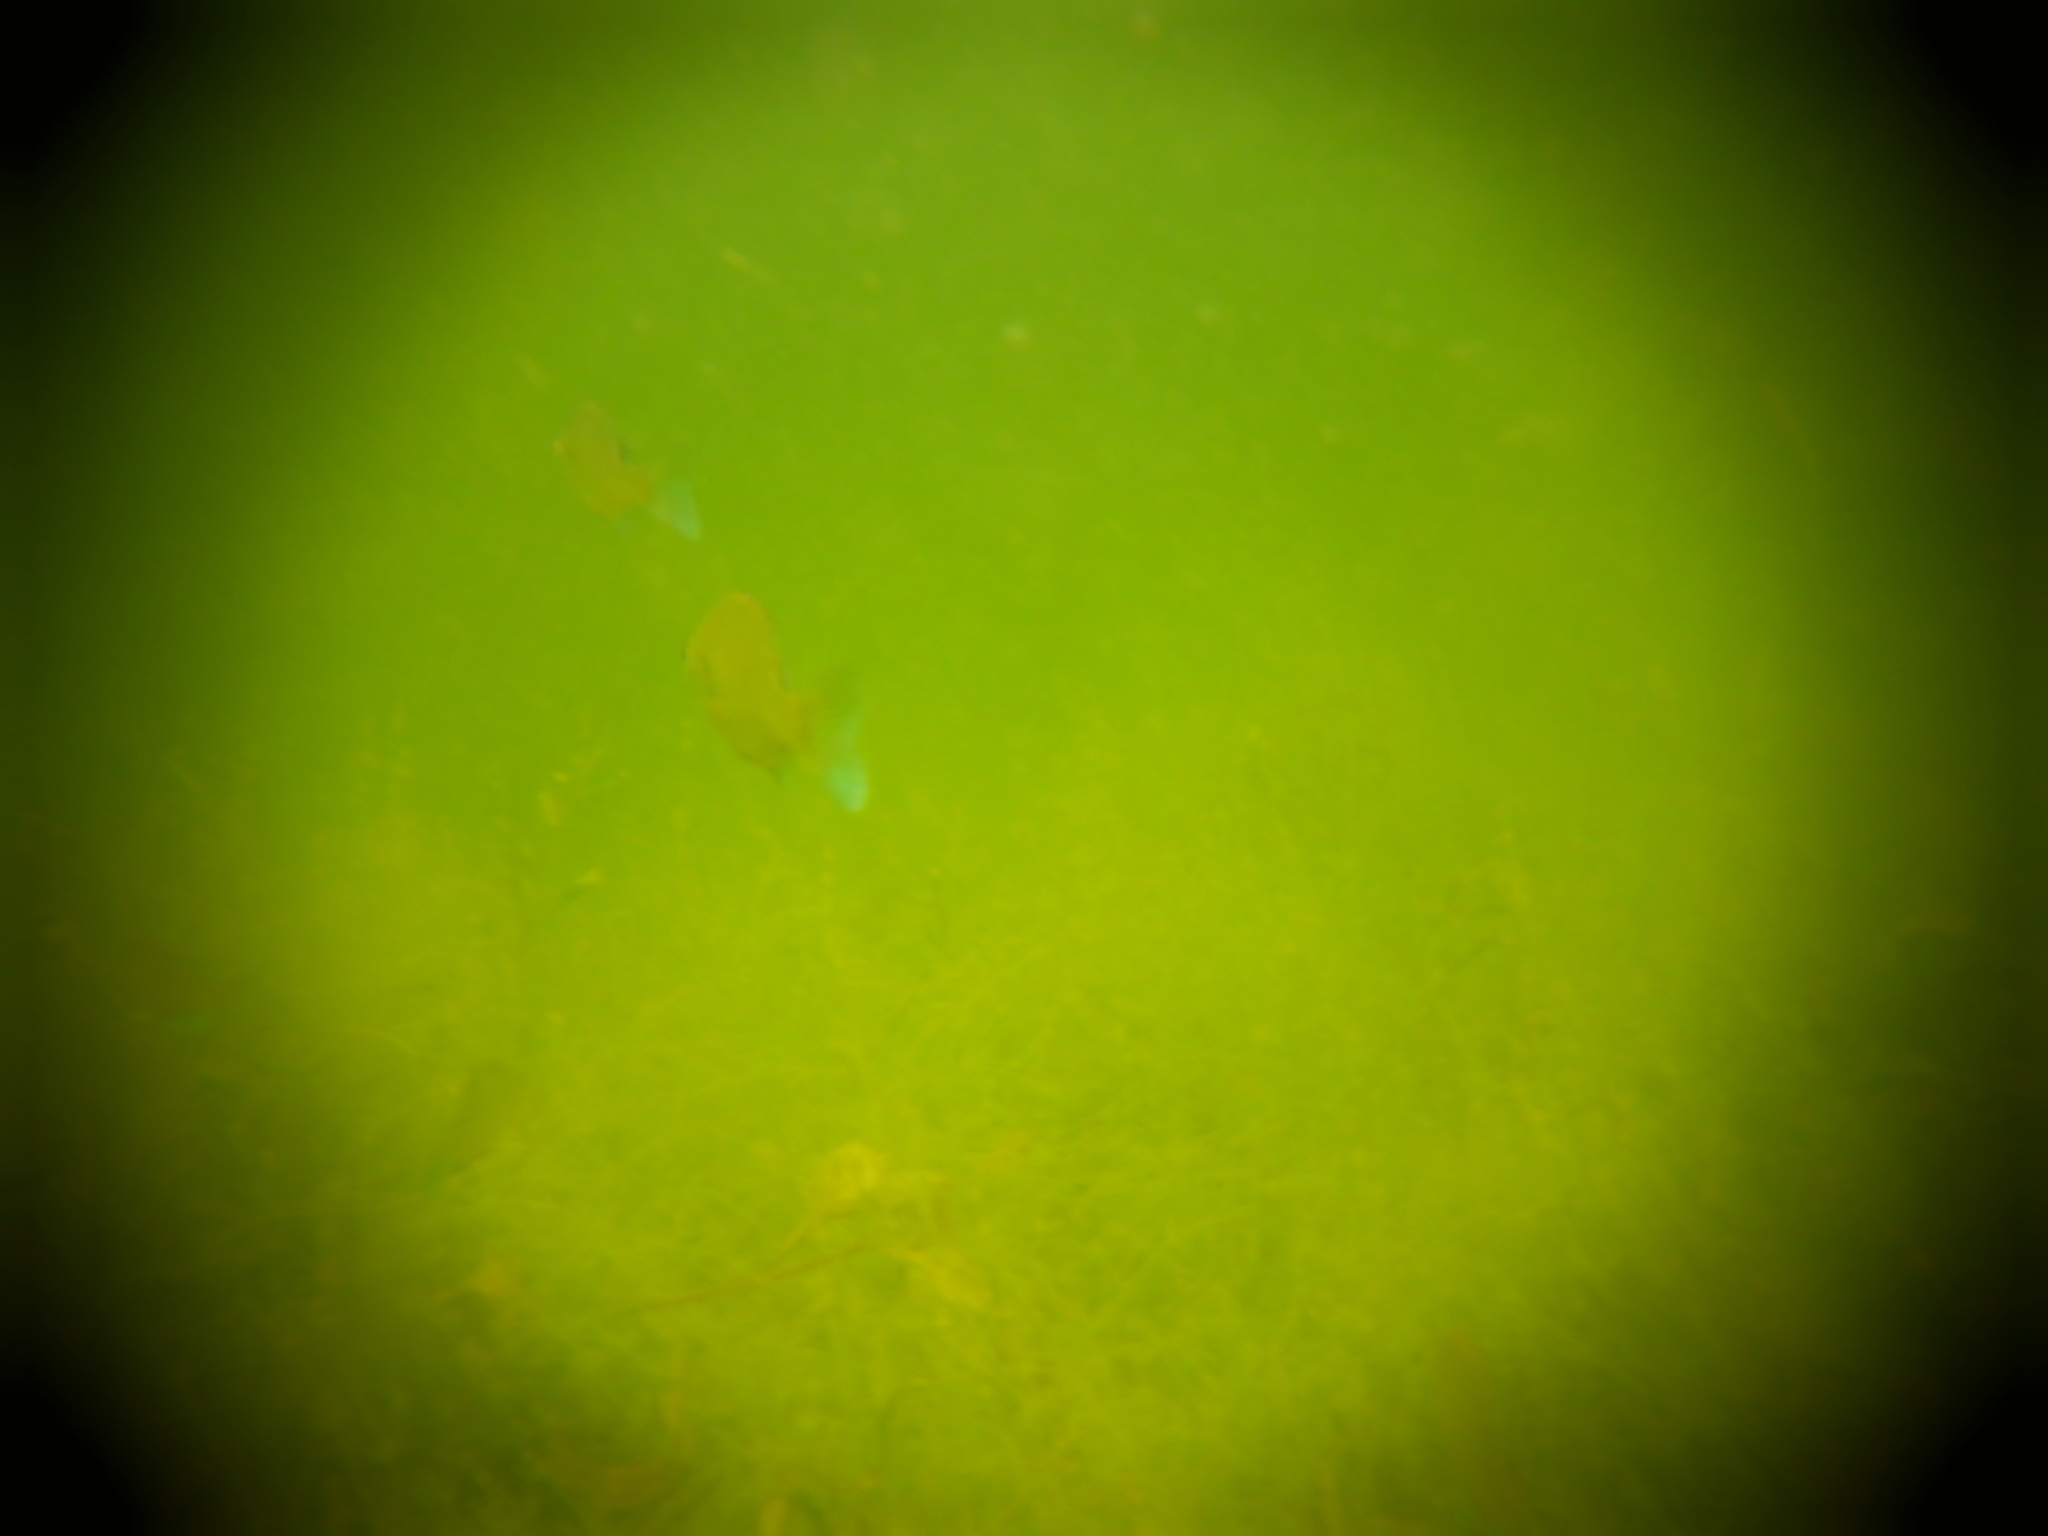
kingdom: Animalia
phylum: Chordata
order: Perciformes
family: Centrarchidae
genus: Lepomis
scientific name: Lepomis macrochirus
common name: Bluegill
